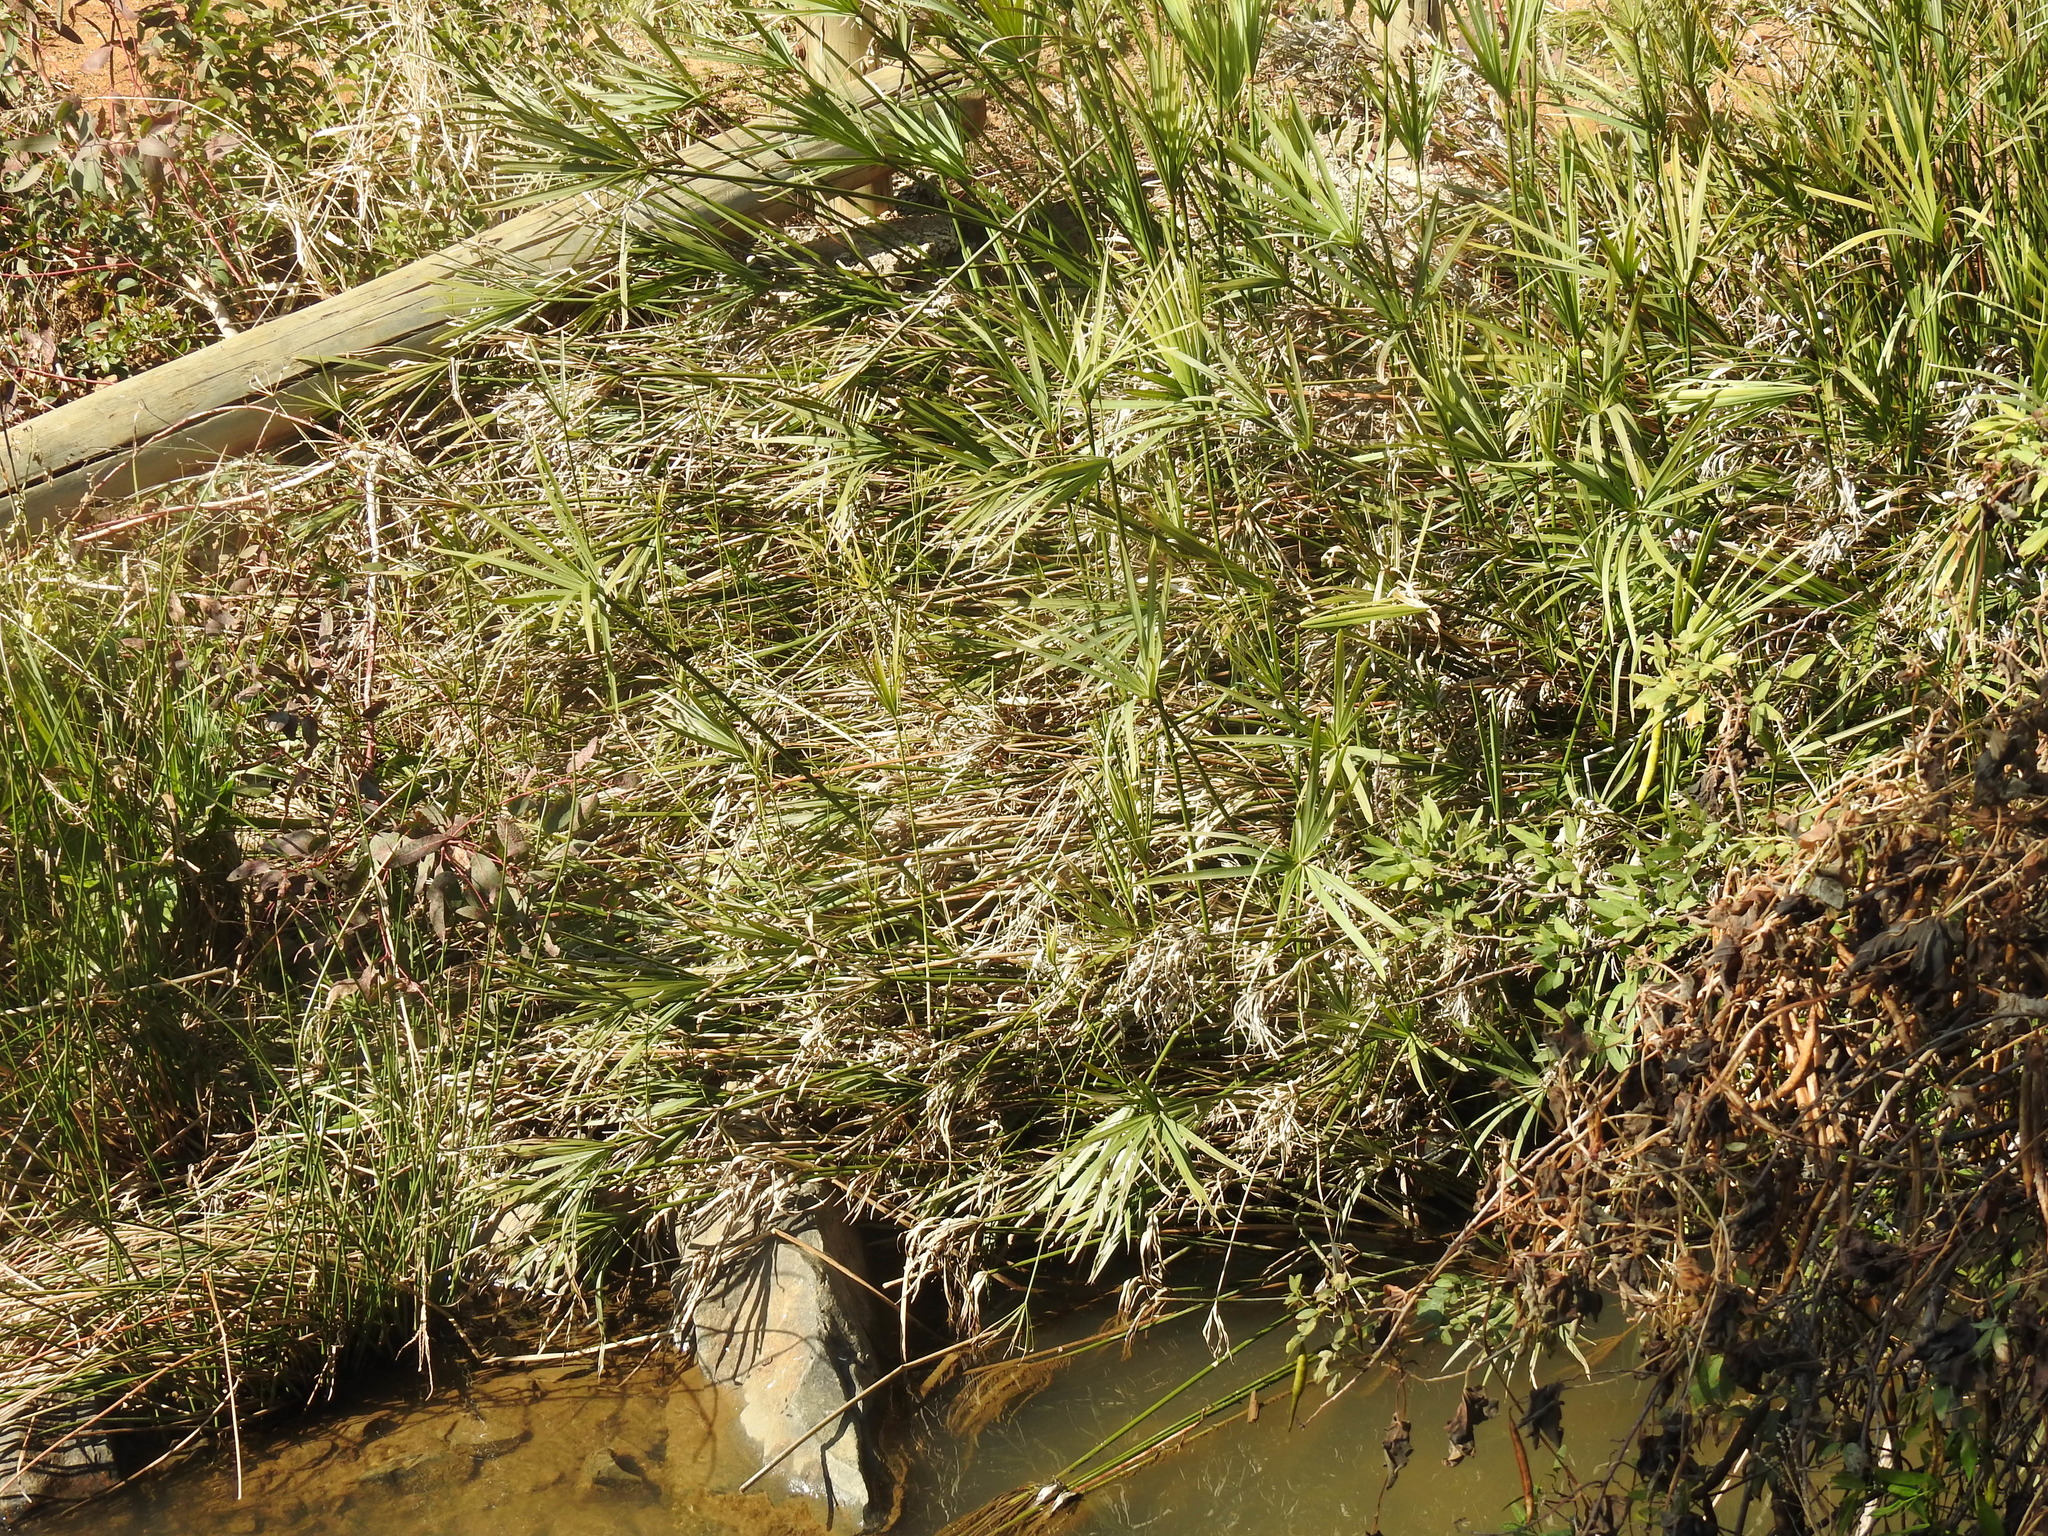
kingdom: Plantae
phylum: Tracheophyta
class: Liliopsida
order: Poales
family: Cyperaceae
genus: Cyperus
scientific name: Cyperus textilis
